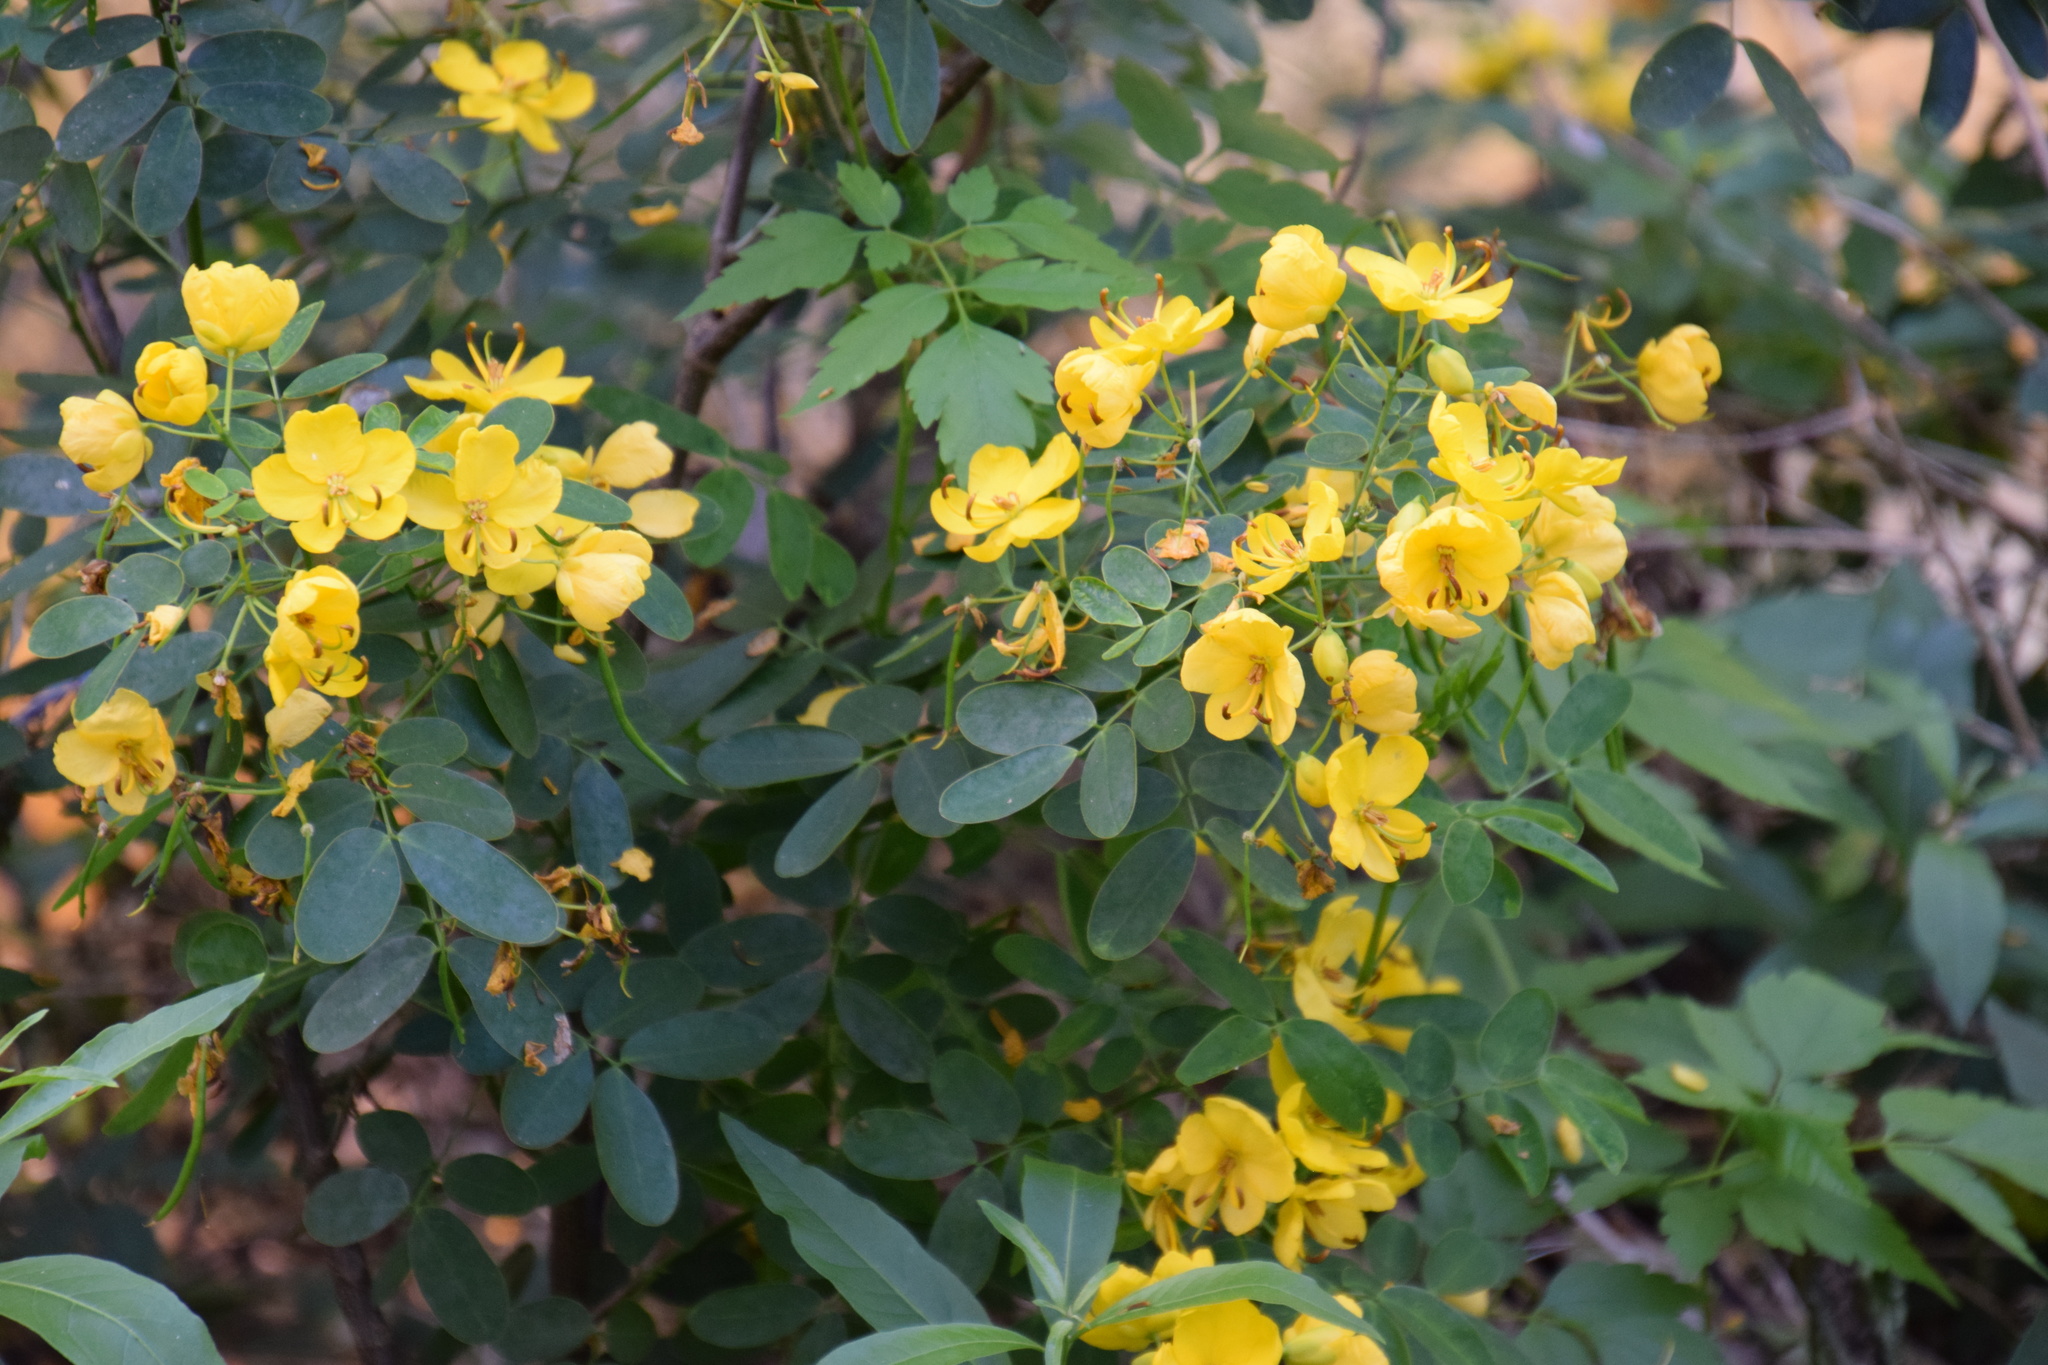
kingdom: Plantae
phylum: Tracheophyta
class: Magnoliopsida
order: Fabales
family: Fabaceae
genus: Senna
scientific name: Senna pendula
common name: Easter cassia
